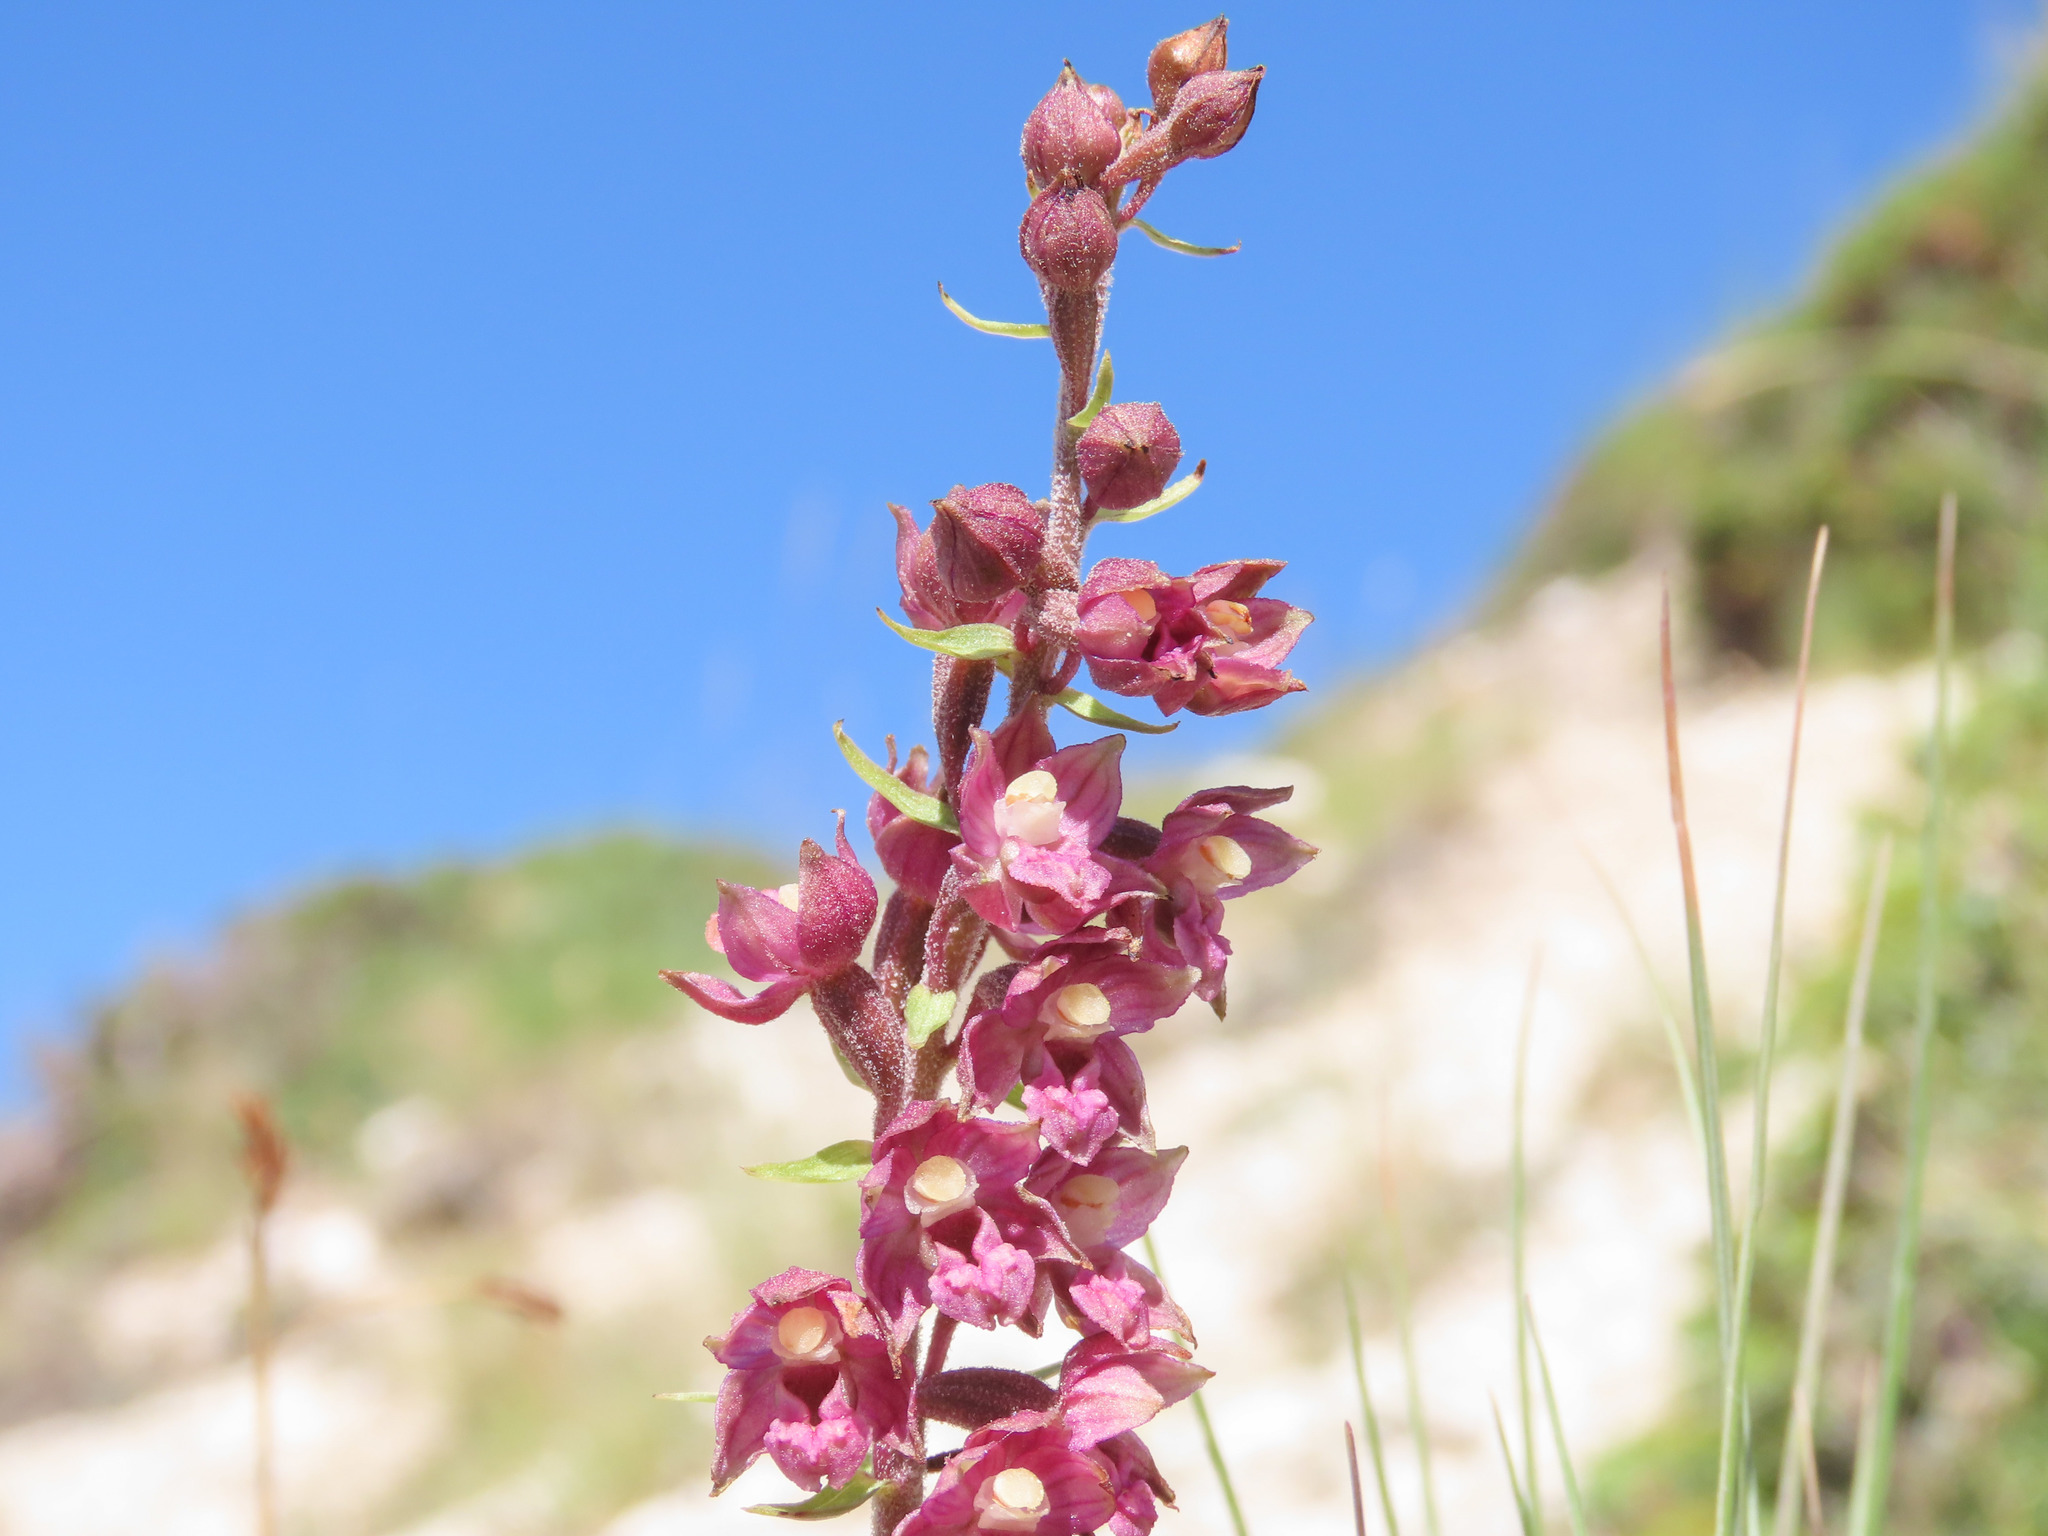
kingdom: Plantae
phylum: Tracheophyta
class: Liliopsida
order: Asparagales
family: Orchidaceae
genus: Epipactis
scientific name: Epipactis atrorubens
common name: Dark-red helleborine
